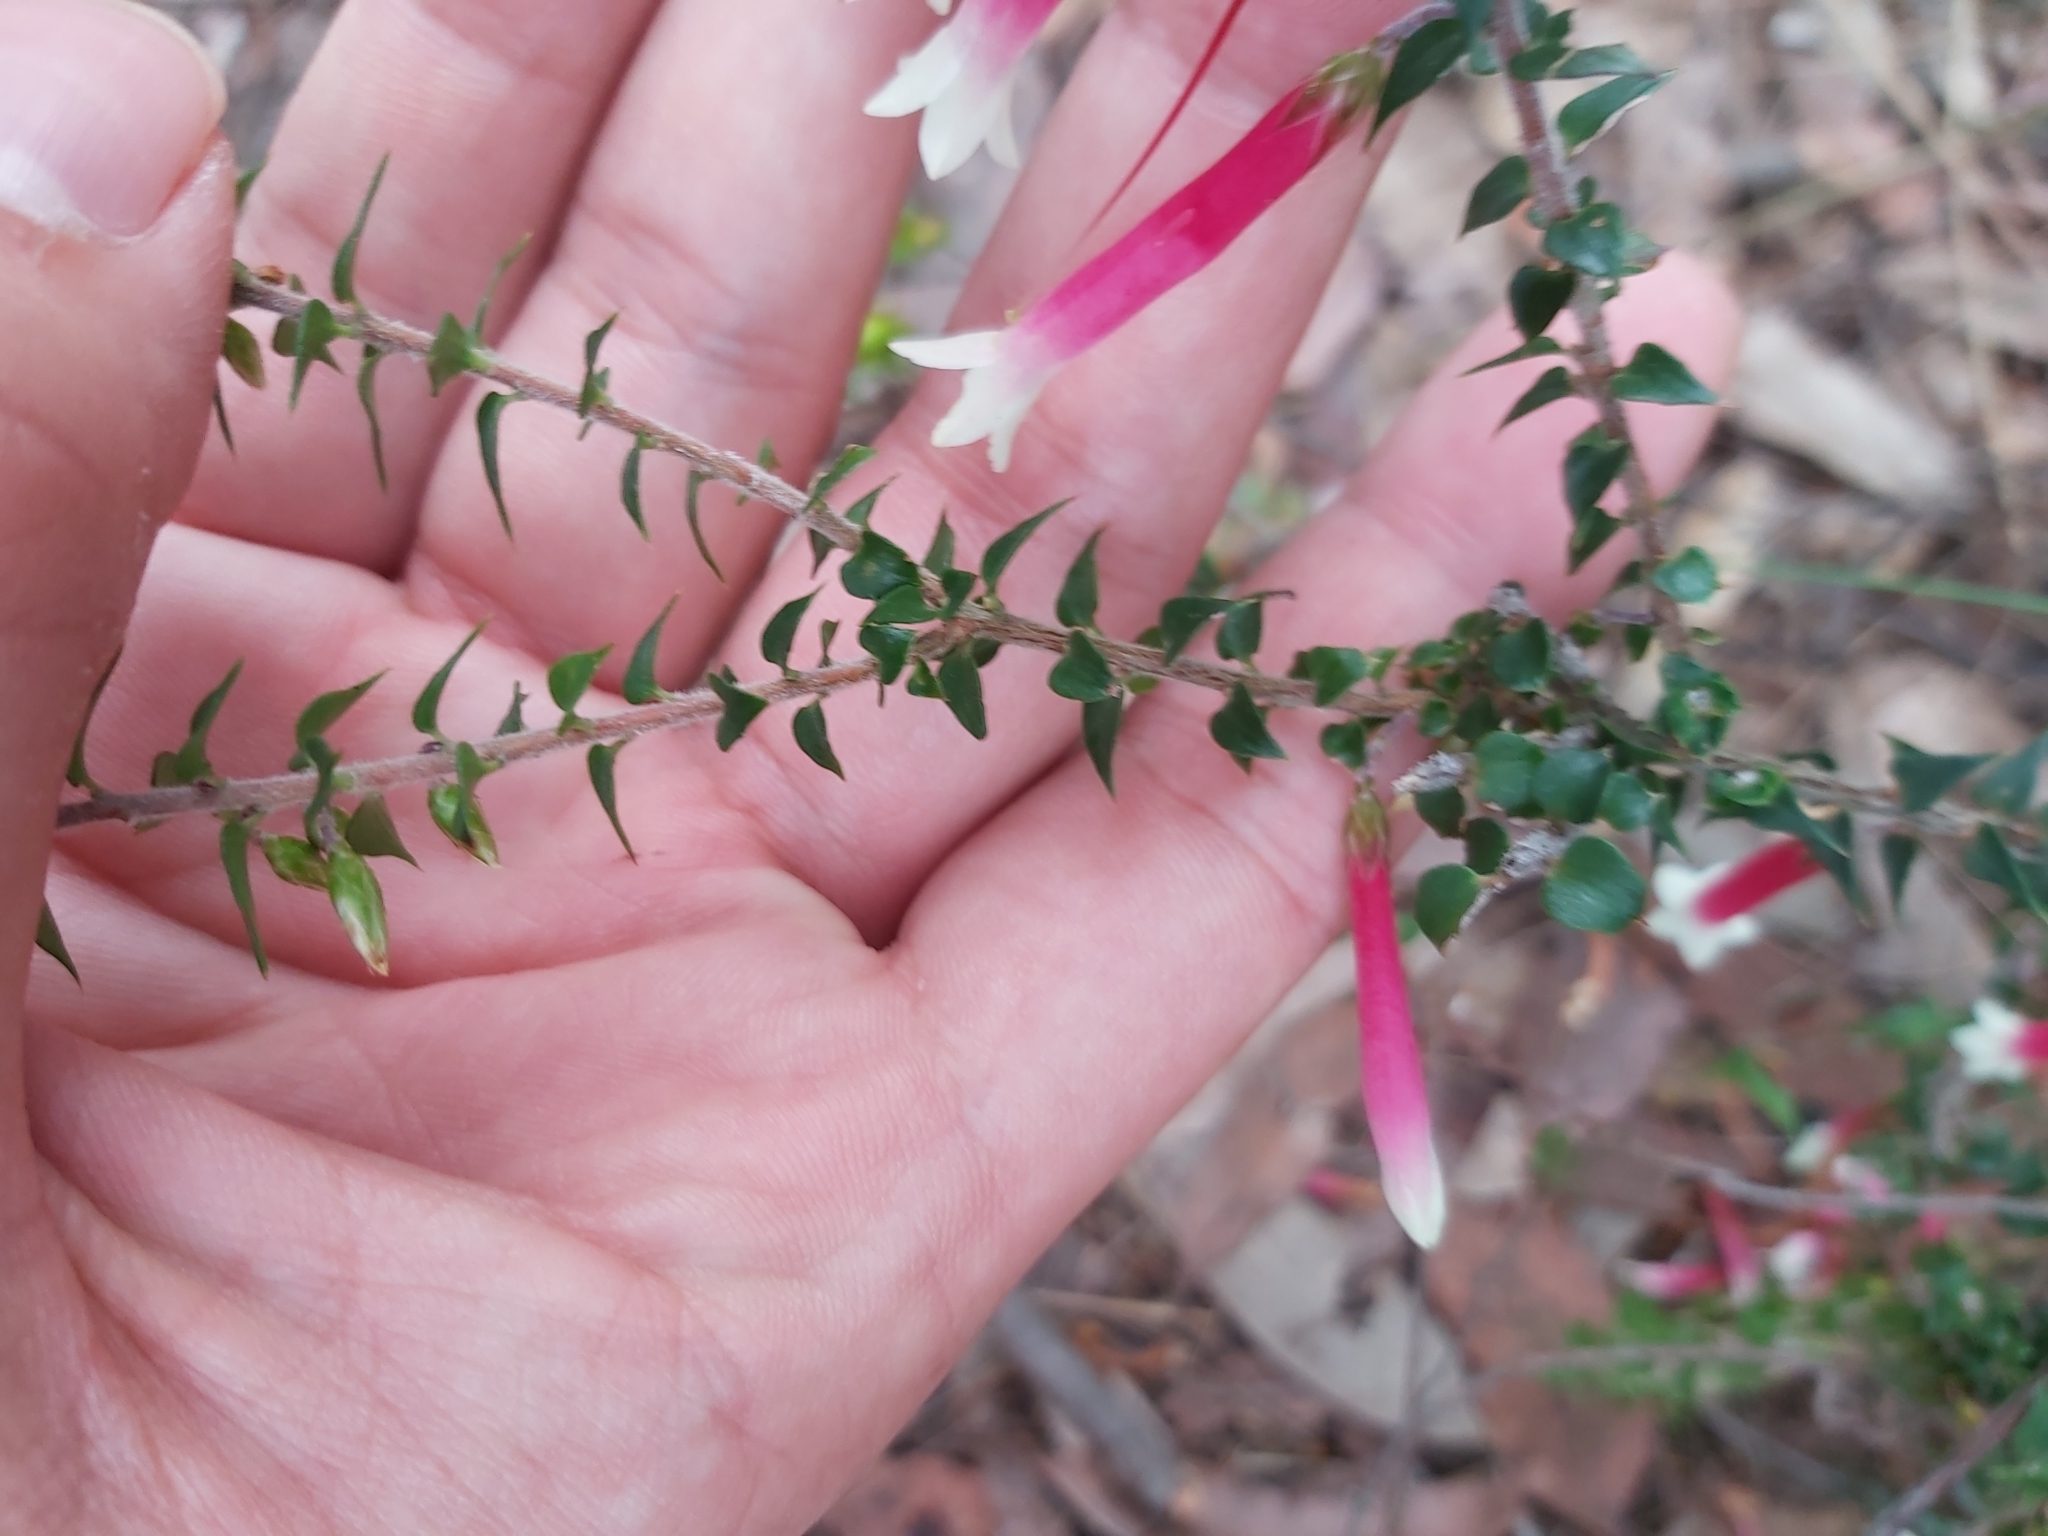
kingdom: Plantae
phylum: Tracheophyta
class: Magnoliopsida
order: Ericales
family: Ericaceae
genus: Epacris
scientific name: Epacris longiflora
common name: Fuchsia-heath
